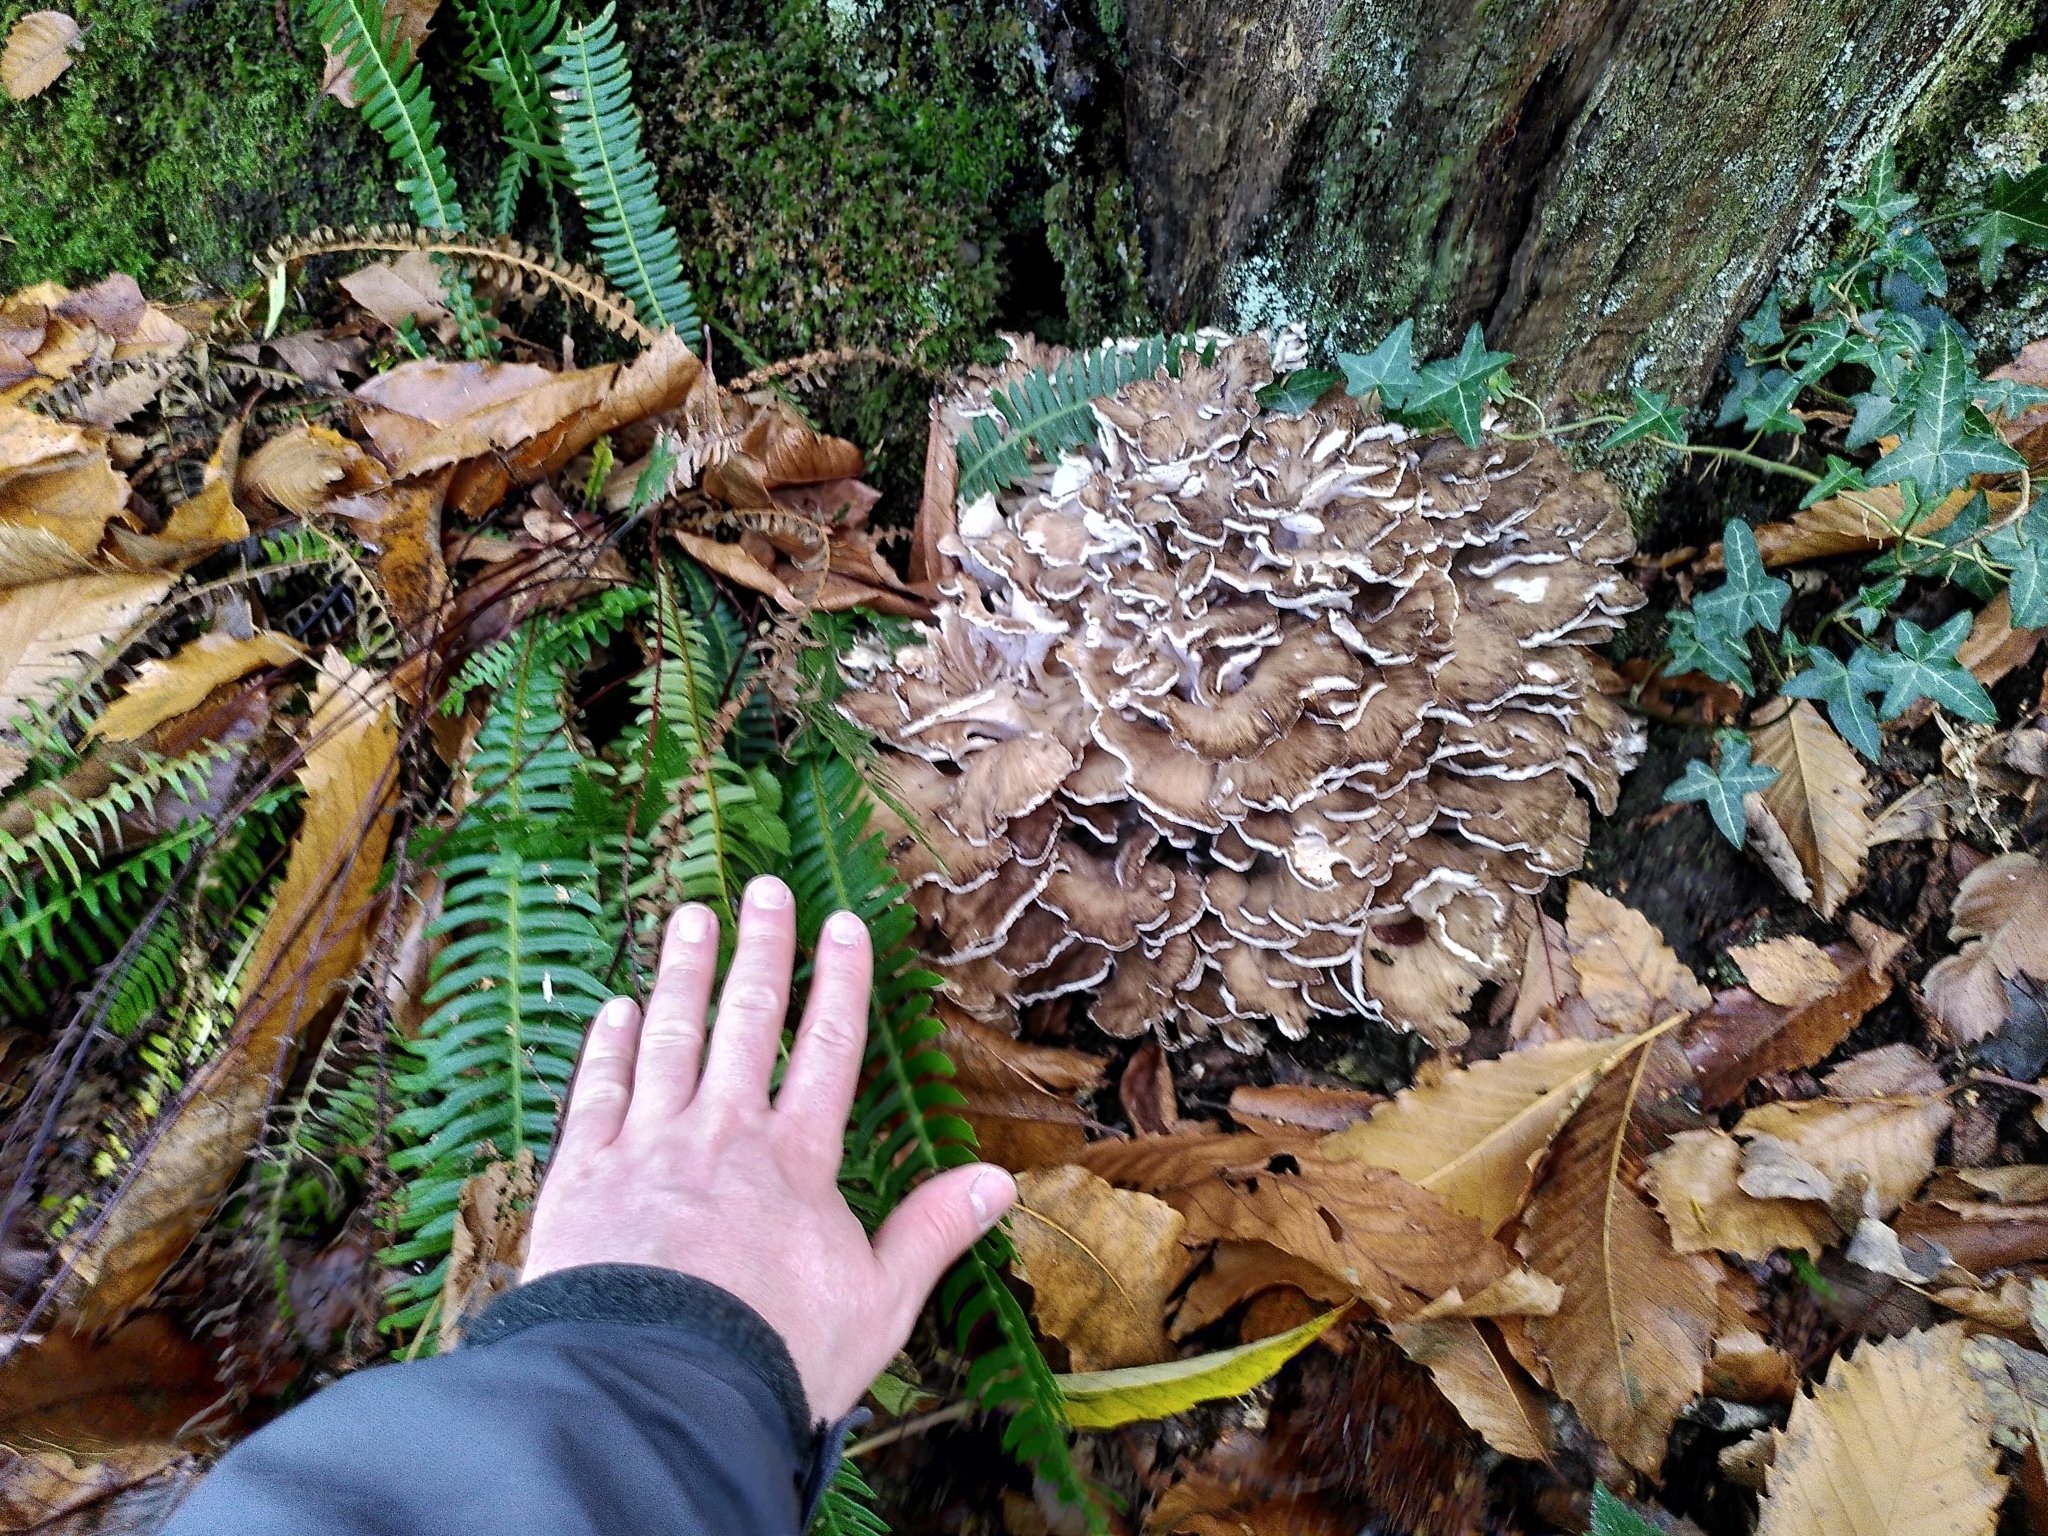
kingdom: Fungi
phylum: Basidiomycota
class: Agaricomycetes
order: Polyporales
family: Grifolaceae
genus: Grifola
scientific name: Grifola frondosa
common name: Hen of the woods
